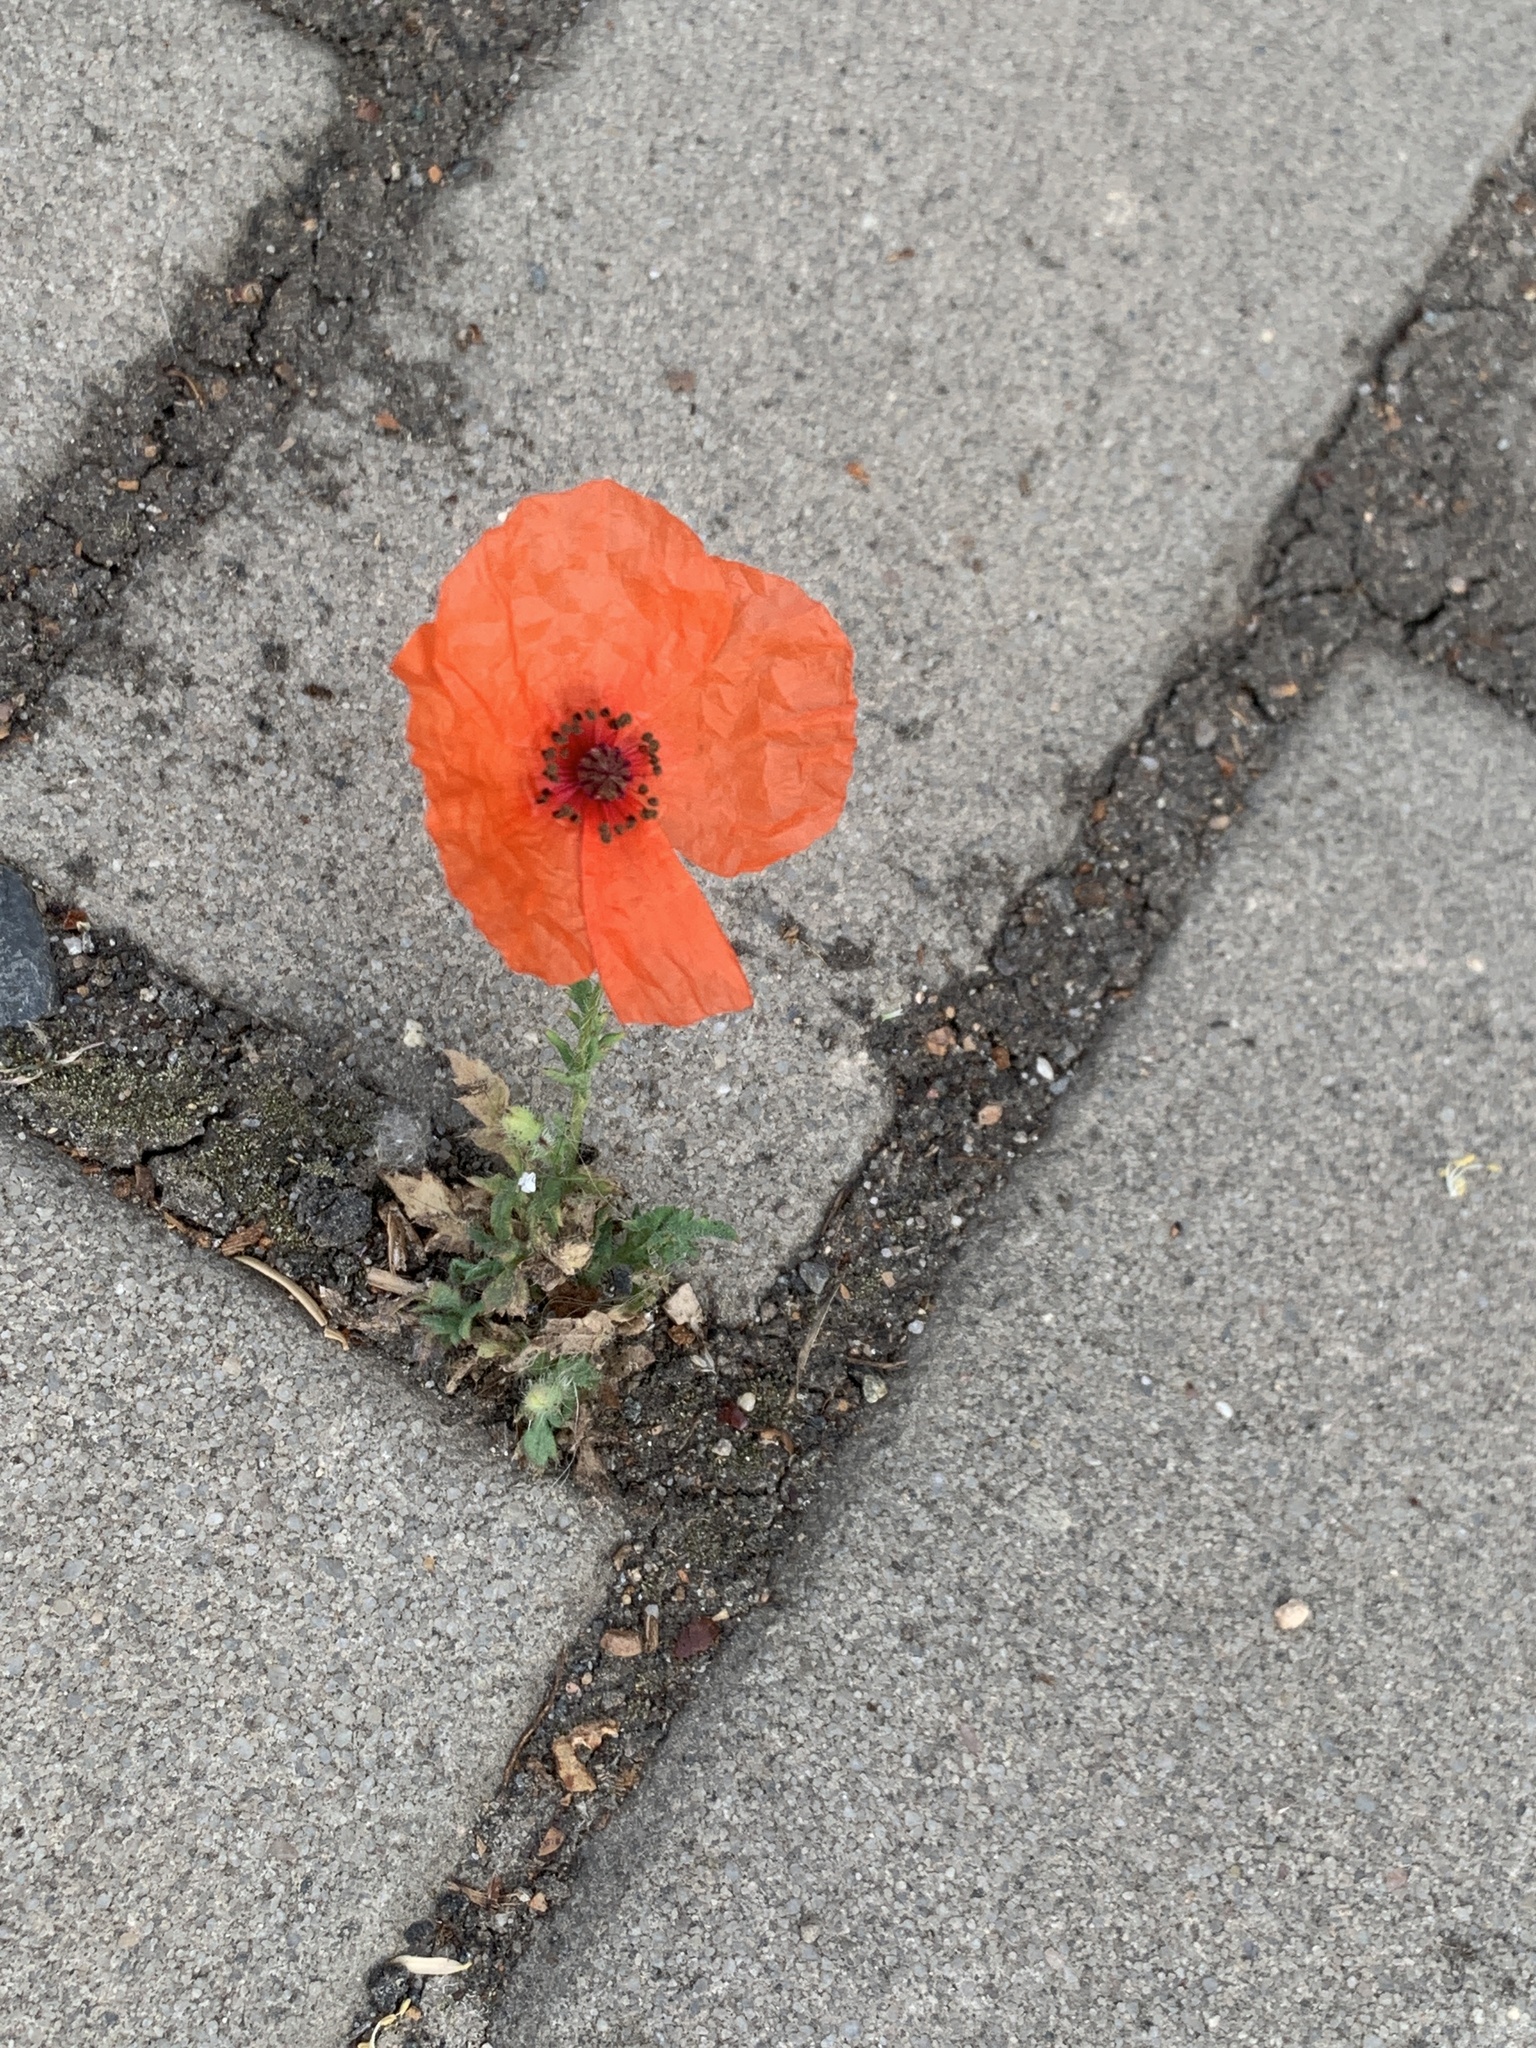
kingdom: Plantae
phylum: Tracheophyta
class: Magnoliopsida
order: Ranunculales
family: Papaveraceae
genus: Papaver
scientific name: Papaver rhoeas
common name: Corn poppy
